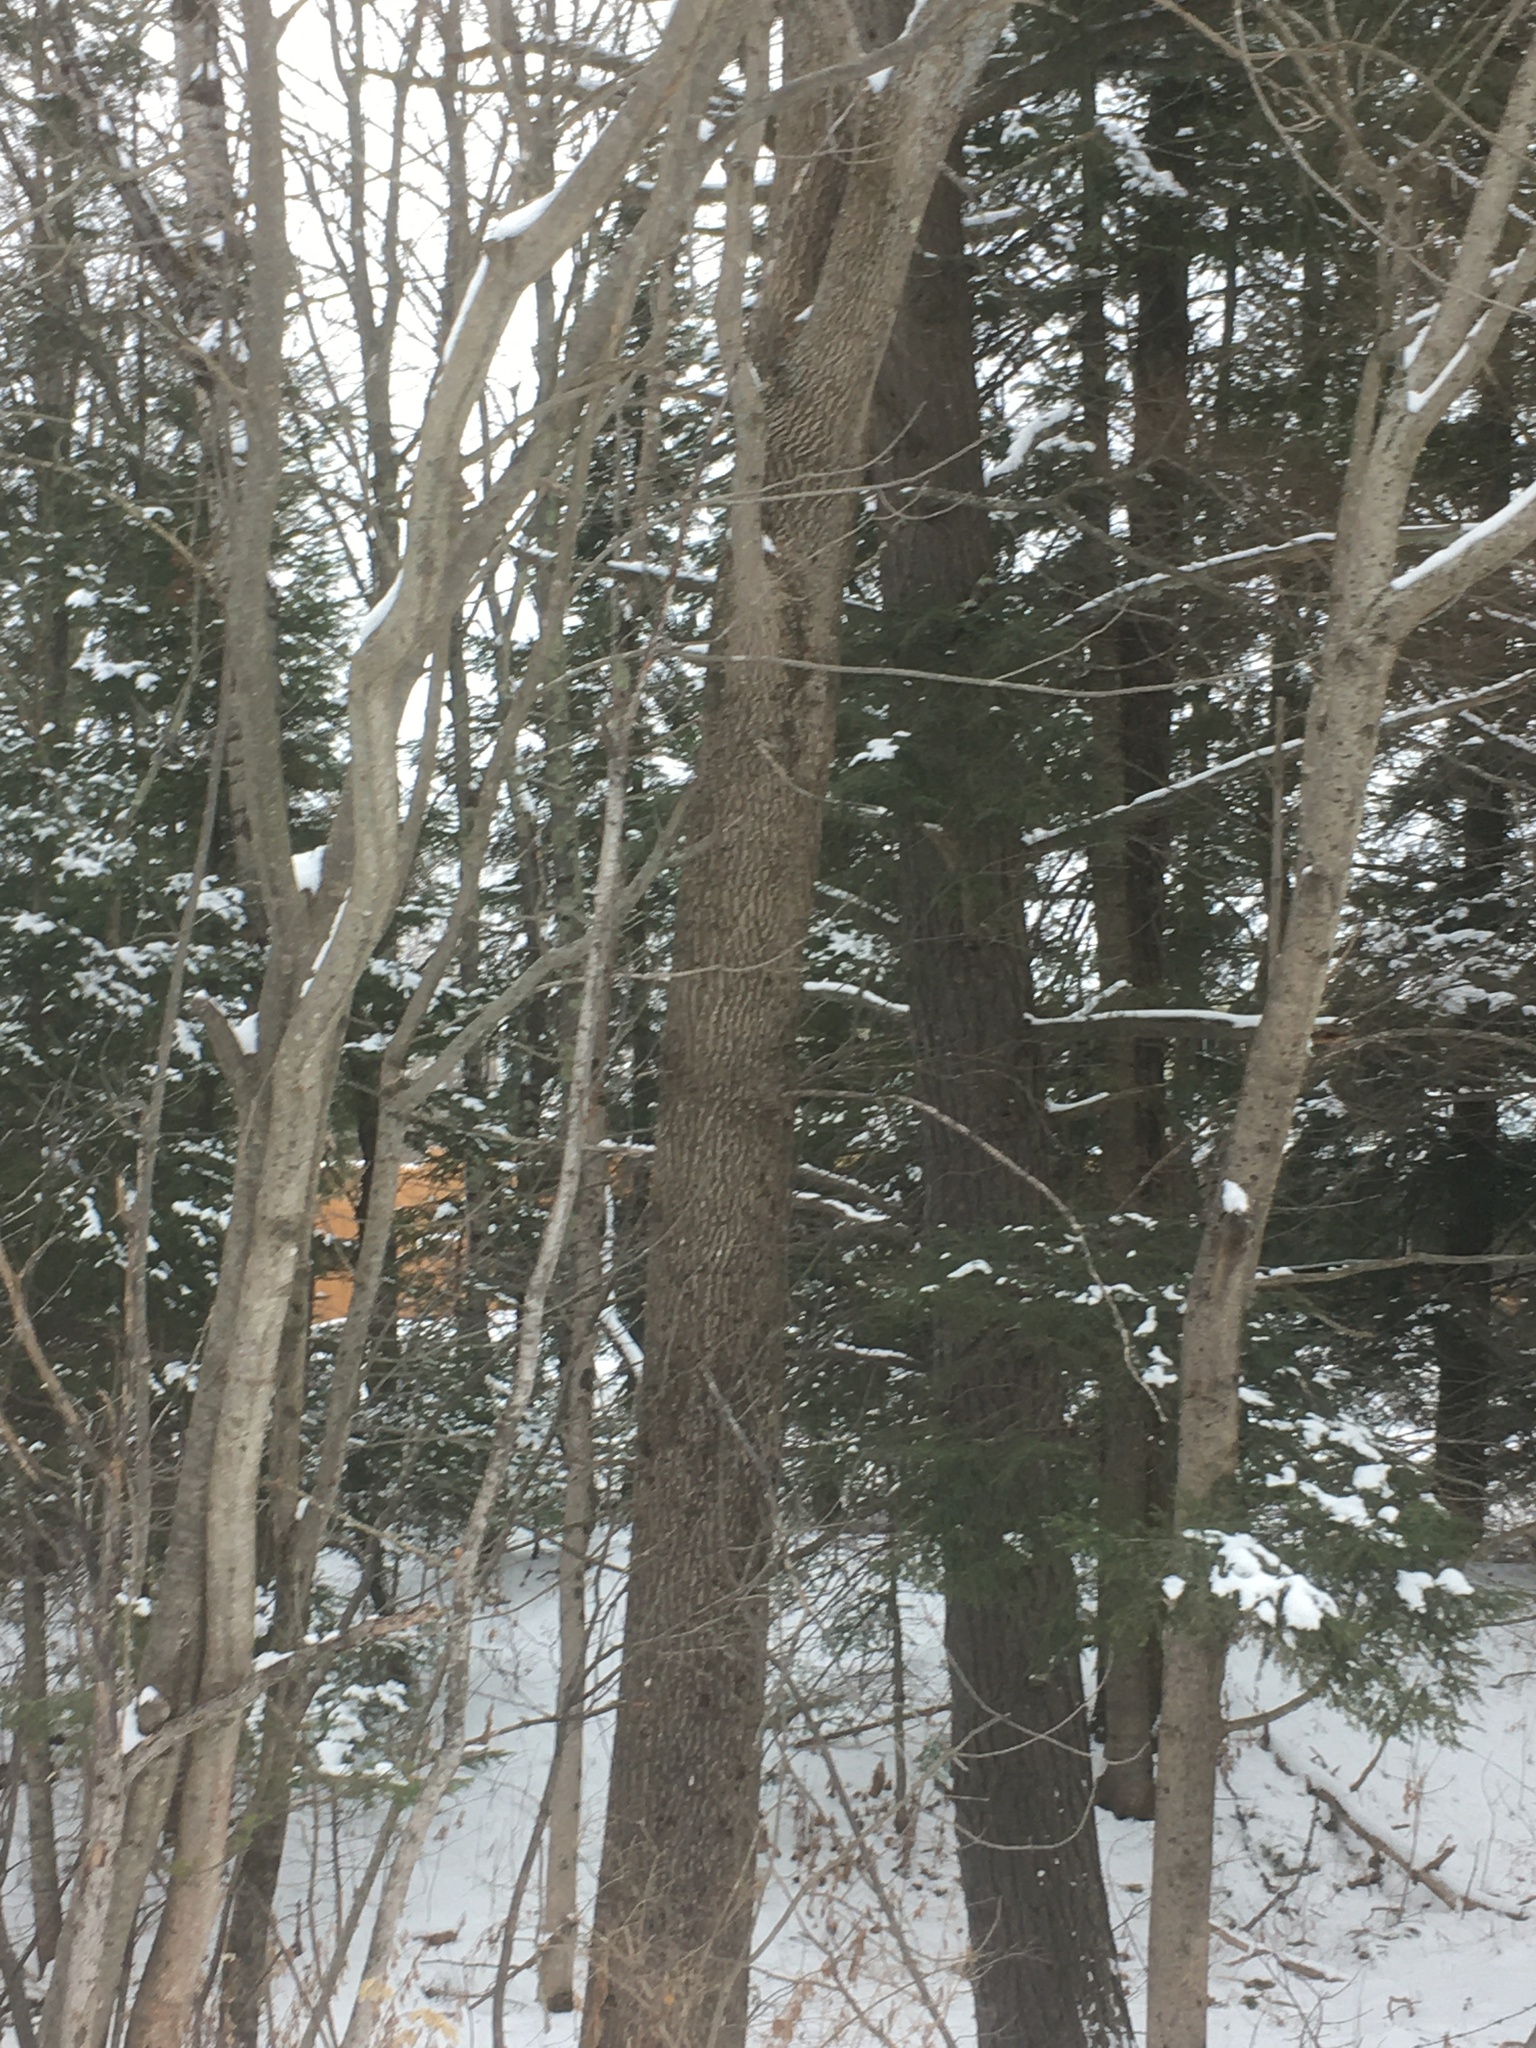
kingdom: Plantae
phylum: Tracheophyta
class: Pinopsida
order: Pinales
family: Pinaceae
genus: Tsuga
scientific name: Tsuga canadensis
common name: Eastern hemlock
